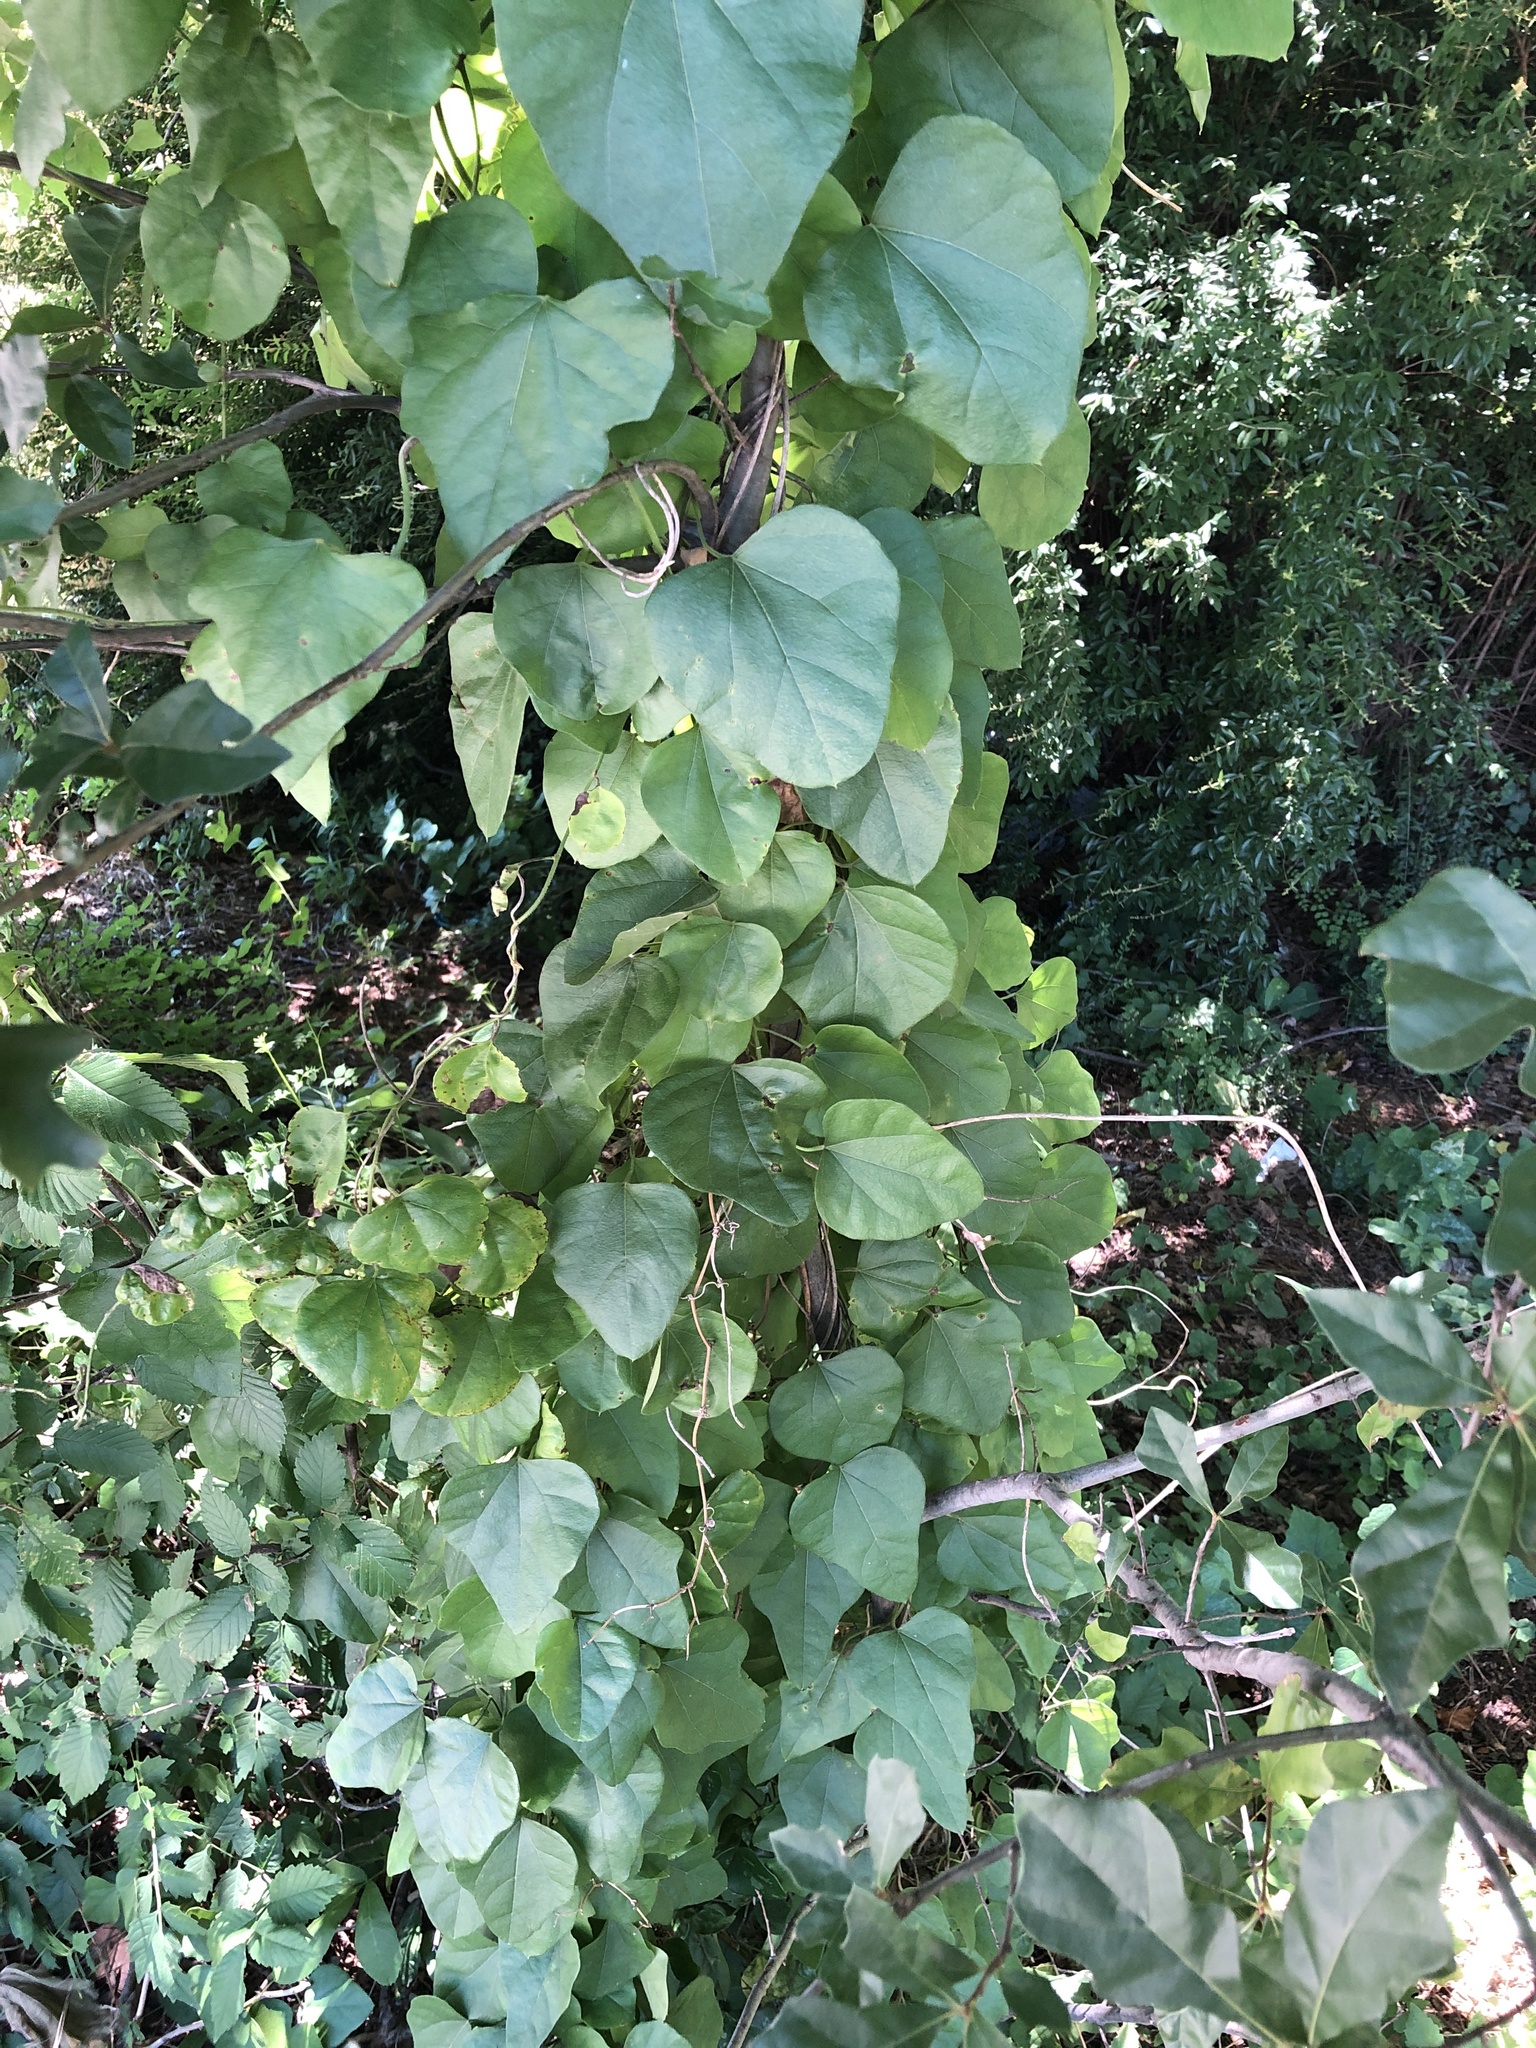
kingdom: Plantae
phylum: Tracheophyta
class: Magnoliopsida
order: Ranunculales
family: Menispermaceae
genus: Cocculus
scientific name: Cocculus carolinus
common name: Carolina moonseed
